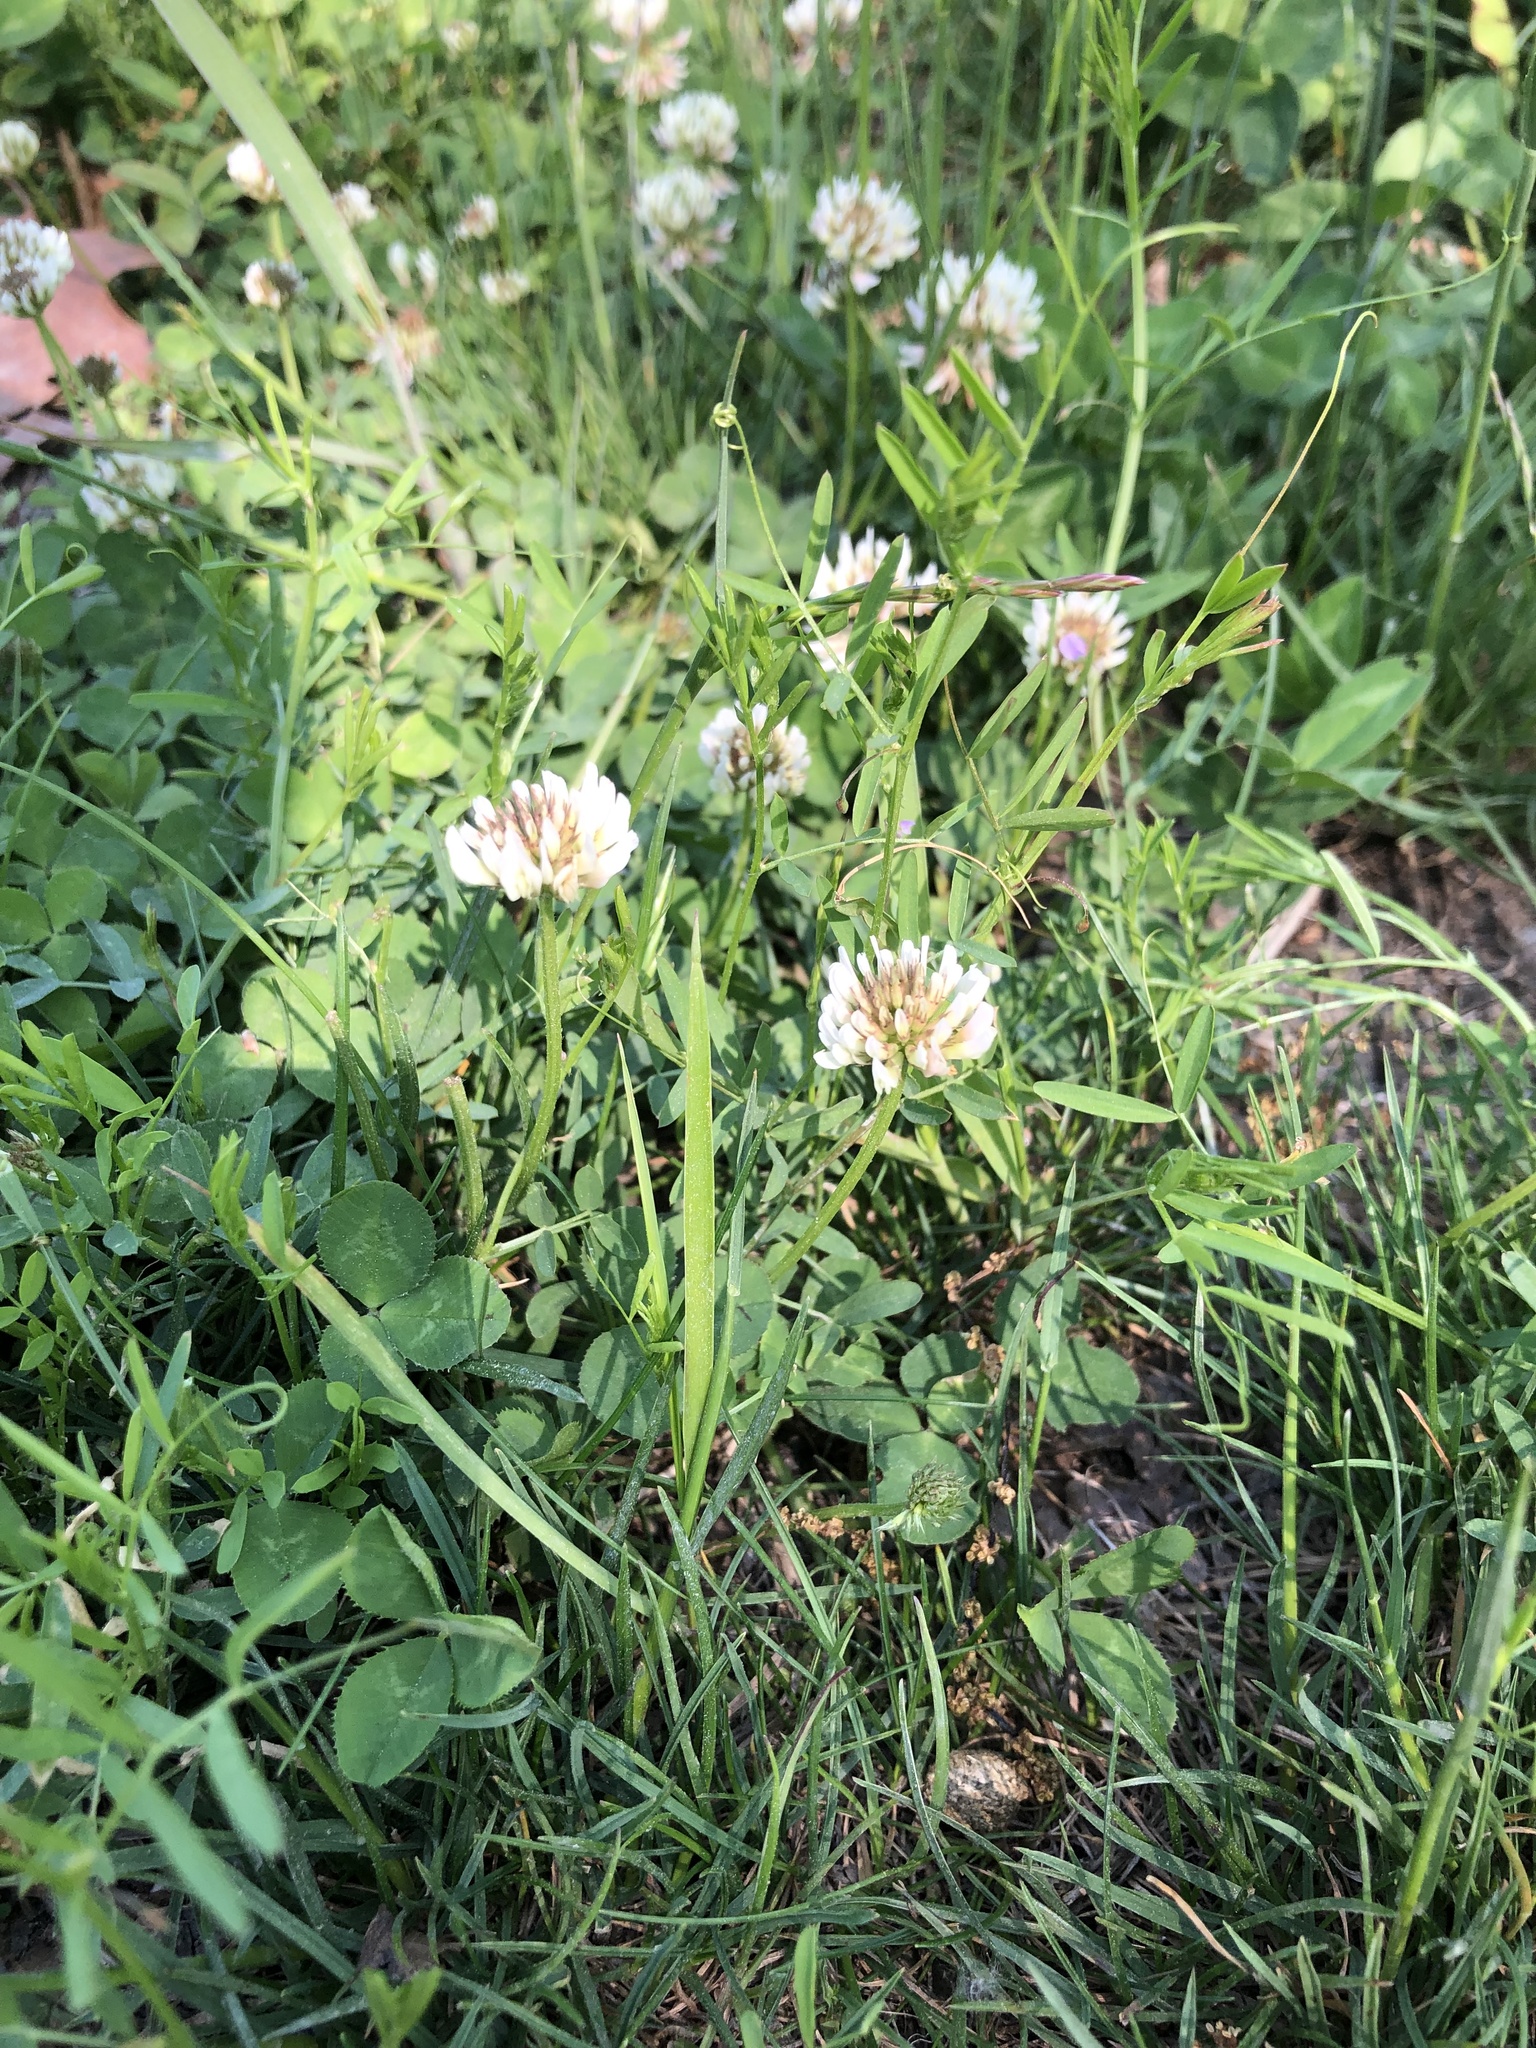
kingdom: Plantae
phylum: Tracheophyta
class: Magnoliopsida
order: Fabales
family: Fabaceae
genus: Trifolium
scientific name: Trifolium repens
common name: White clover
